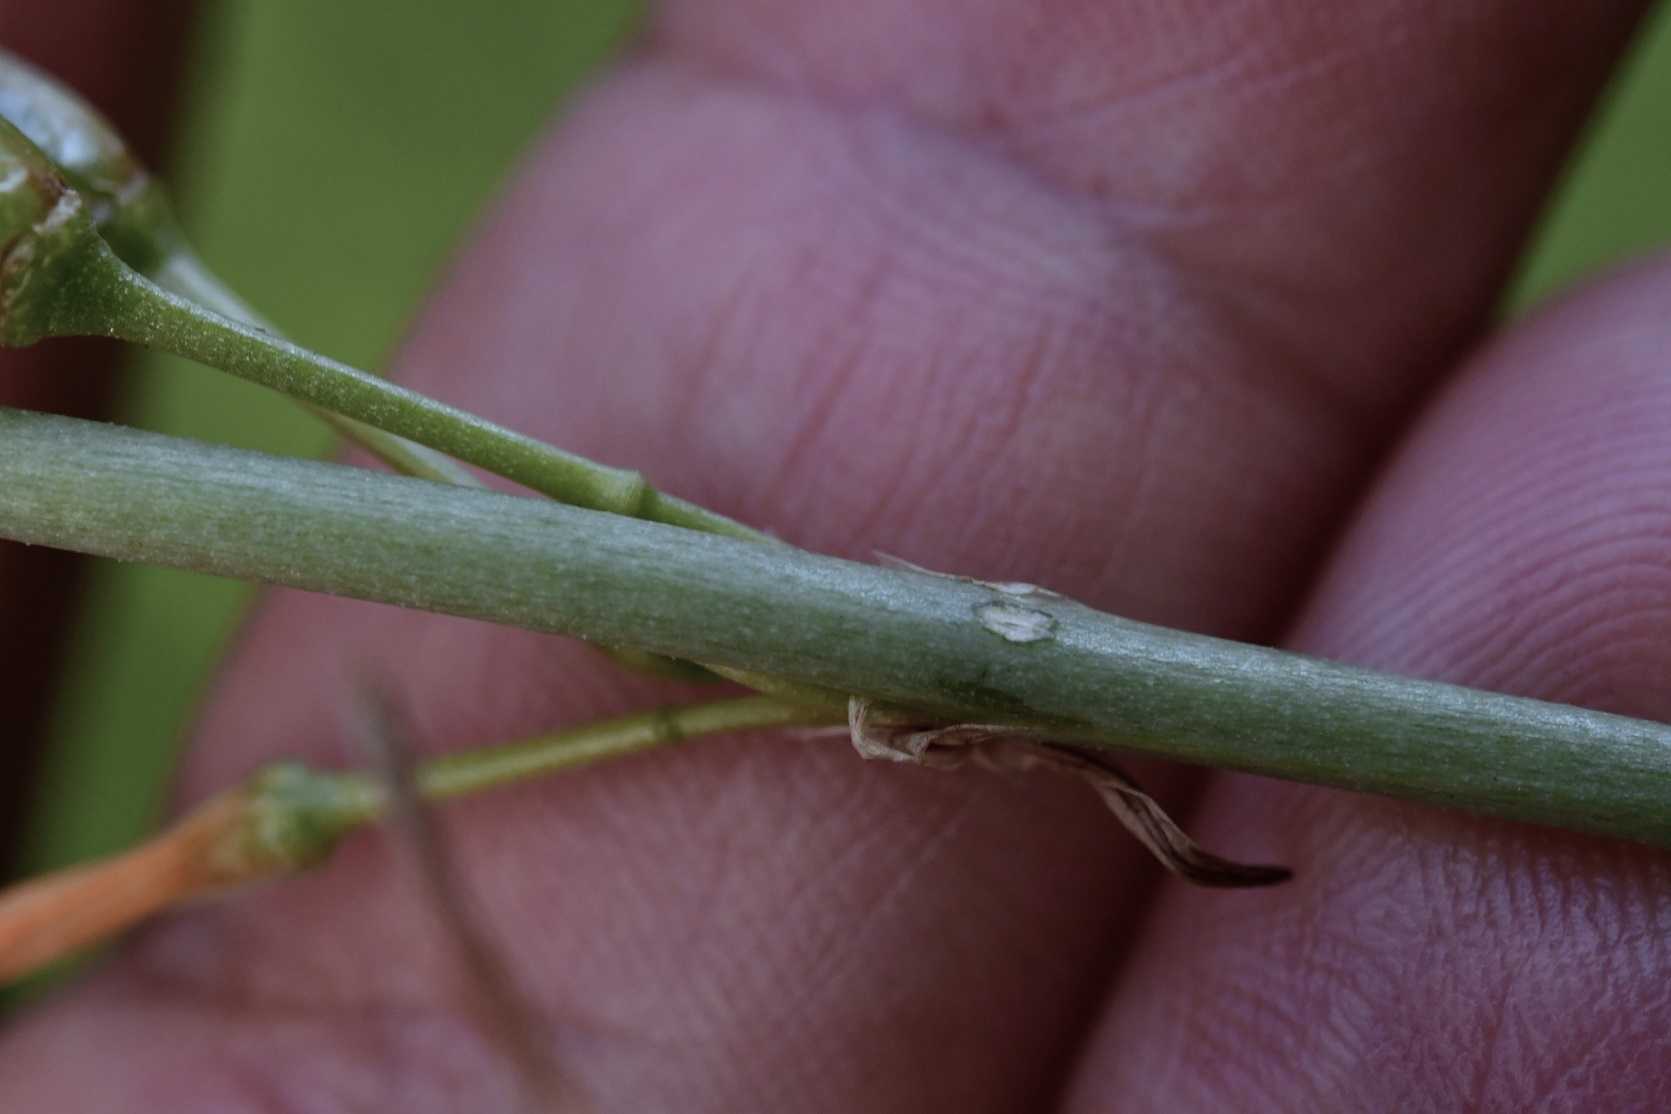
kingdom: Plantae
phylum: Tracheophyta
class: Liliopsida
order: Asparagales
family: Asparagaceae
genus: Echeandia
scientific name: Echeandia skinneri
